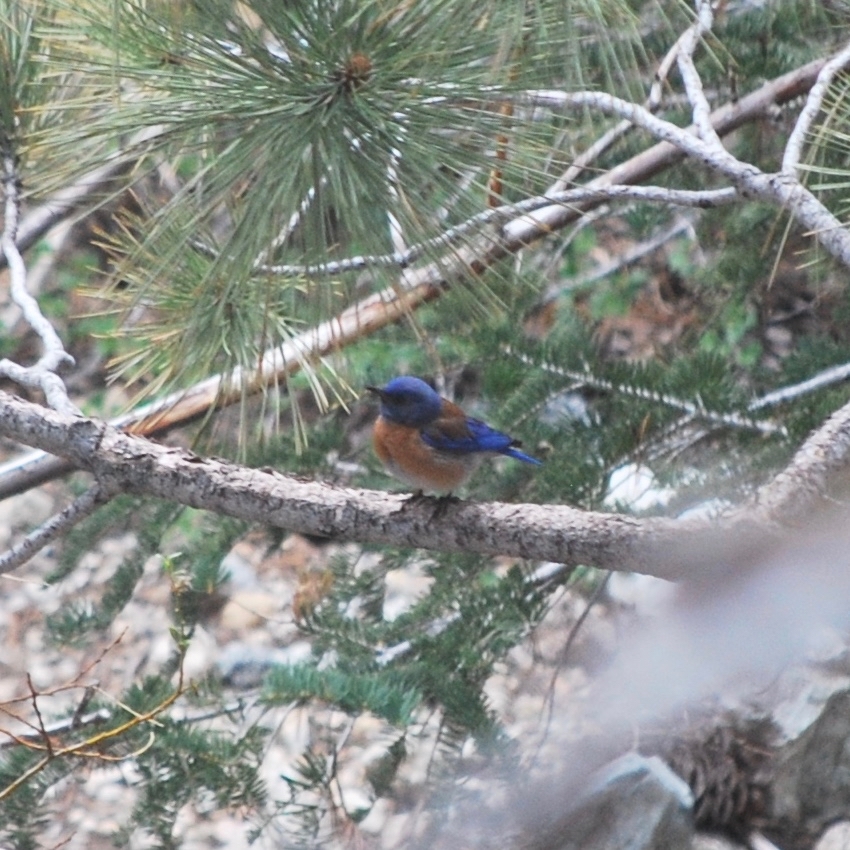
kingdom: Animalia
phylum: Chordata
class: Aves
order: Passeriformes
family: Turdidae
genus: Sialia
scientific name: Sialia mexicana
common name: Western bluebird
